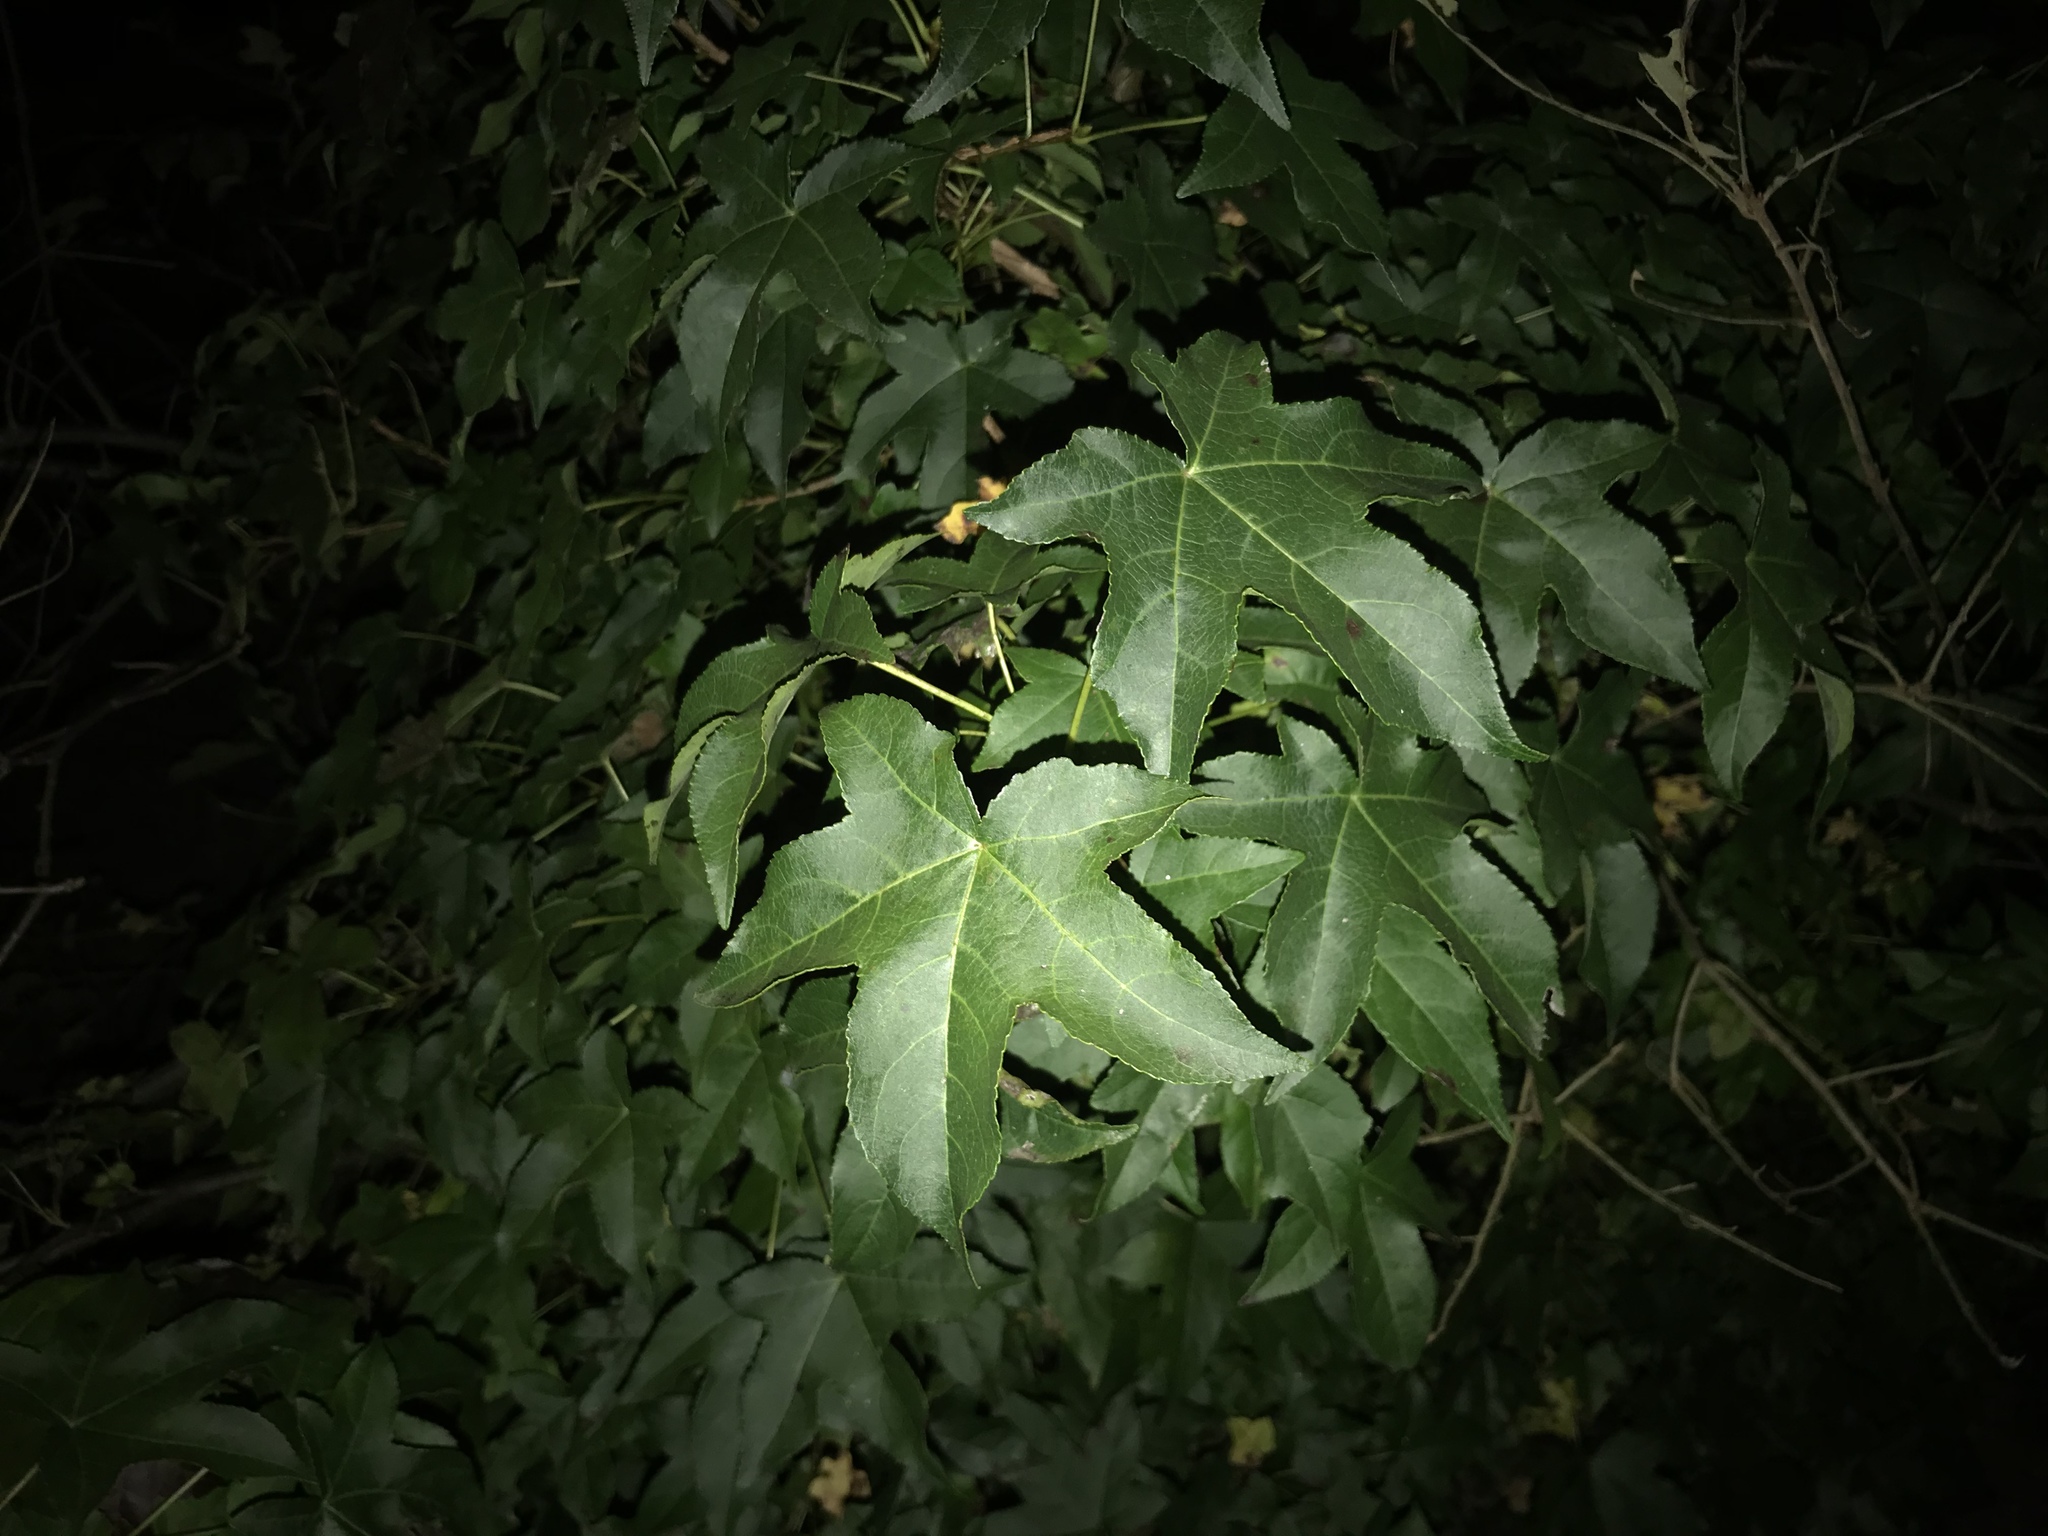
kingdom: Plantae
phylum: Tracheophyta
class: Magnoliopsida
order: Saxifragales
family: Altingiaceae
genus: Liquidambar
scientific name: Liquidambar styraciflua
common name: Sweet gum
